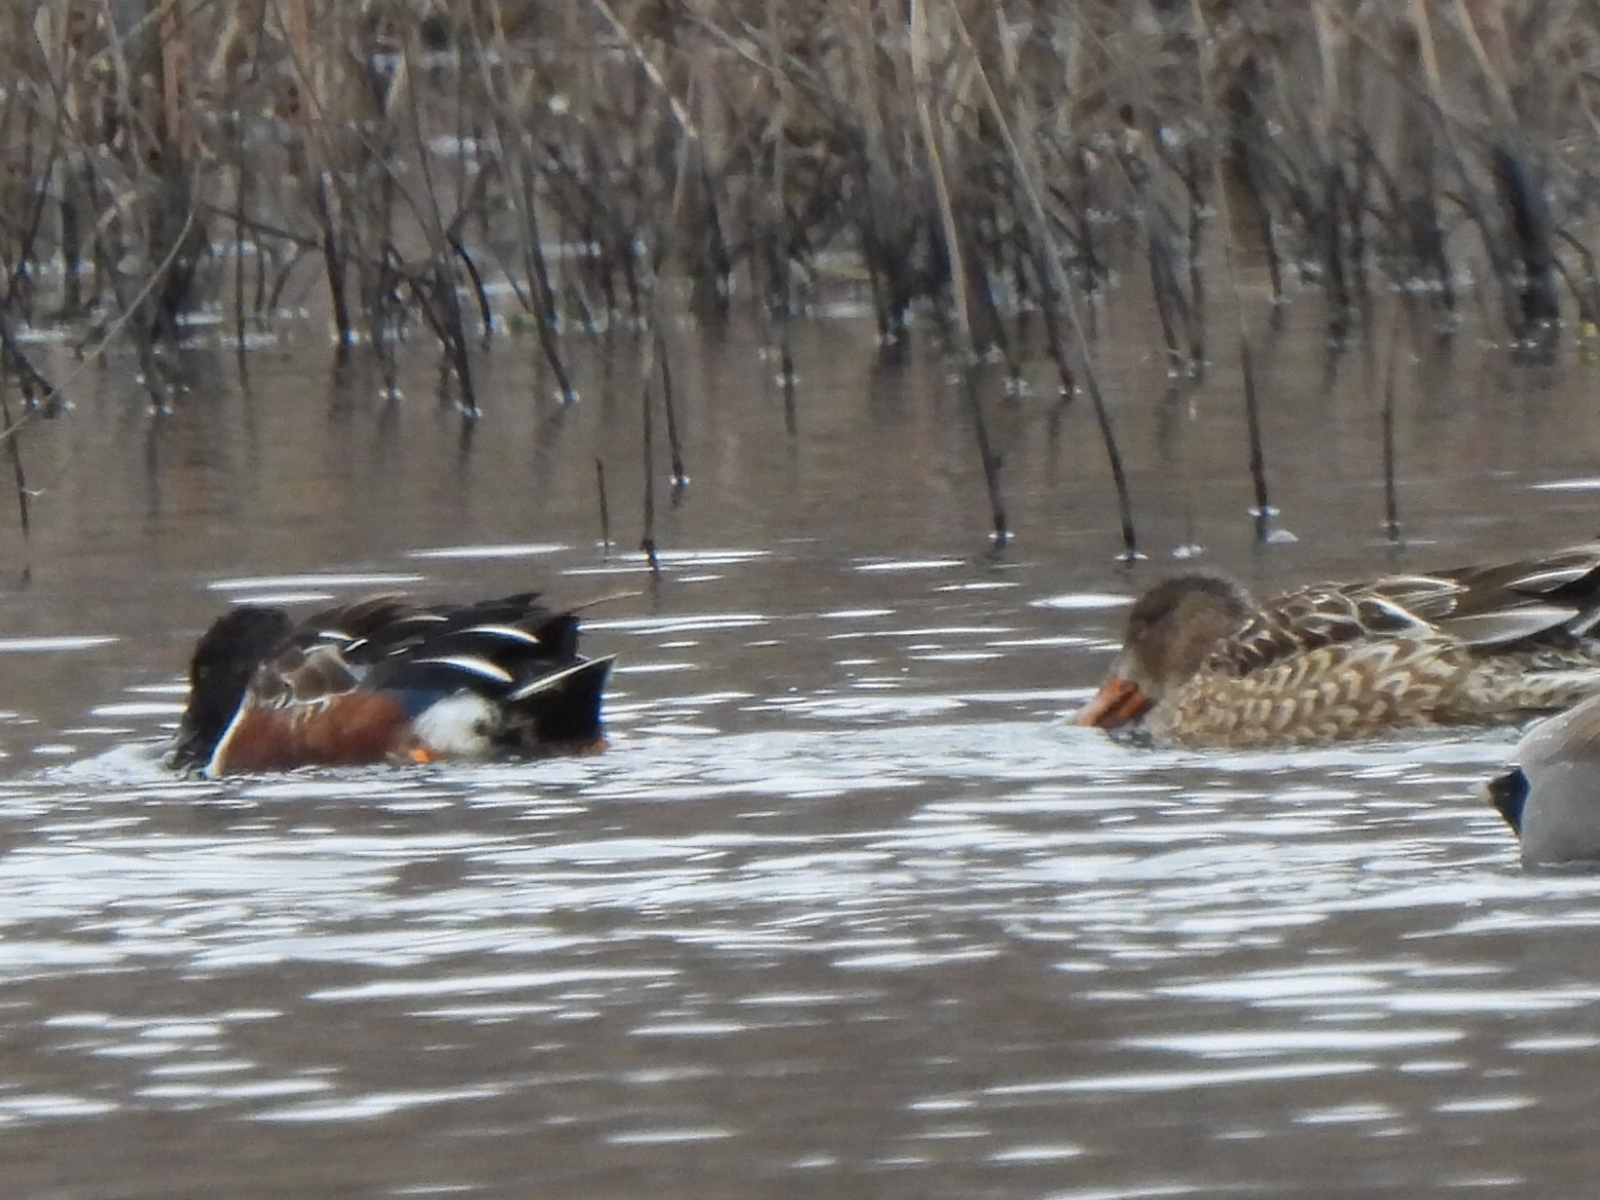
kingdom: Animalia
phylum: Chordata
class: Aves
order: Anseriformes
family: Anatidae
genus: Spatula
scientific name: Spatula clypeata
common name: Northern shoveler
